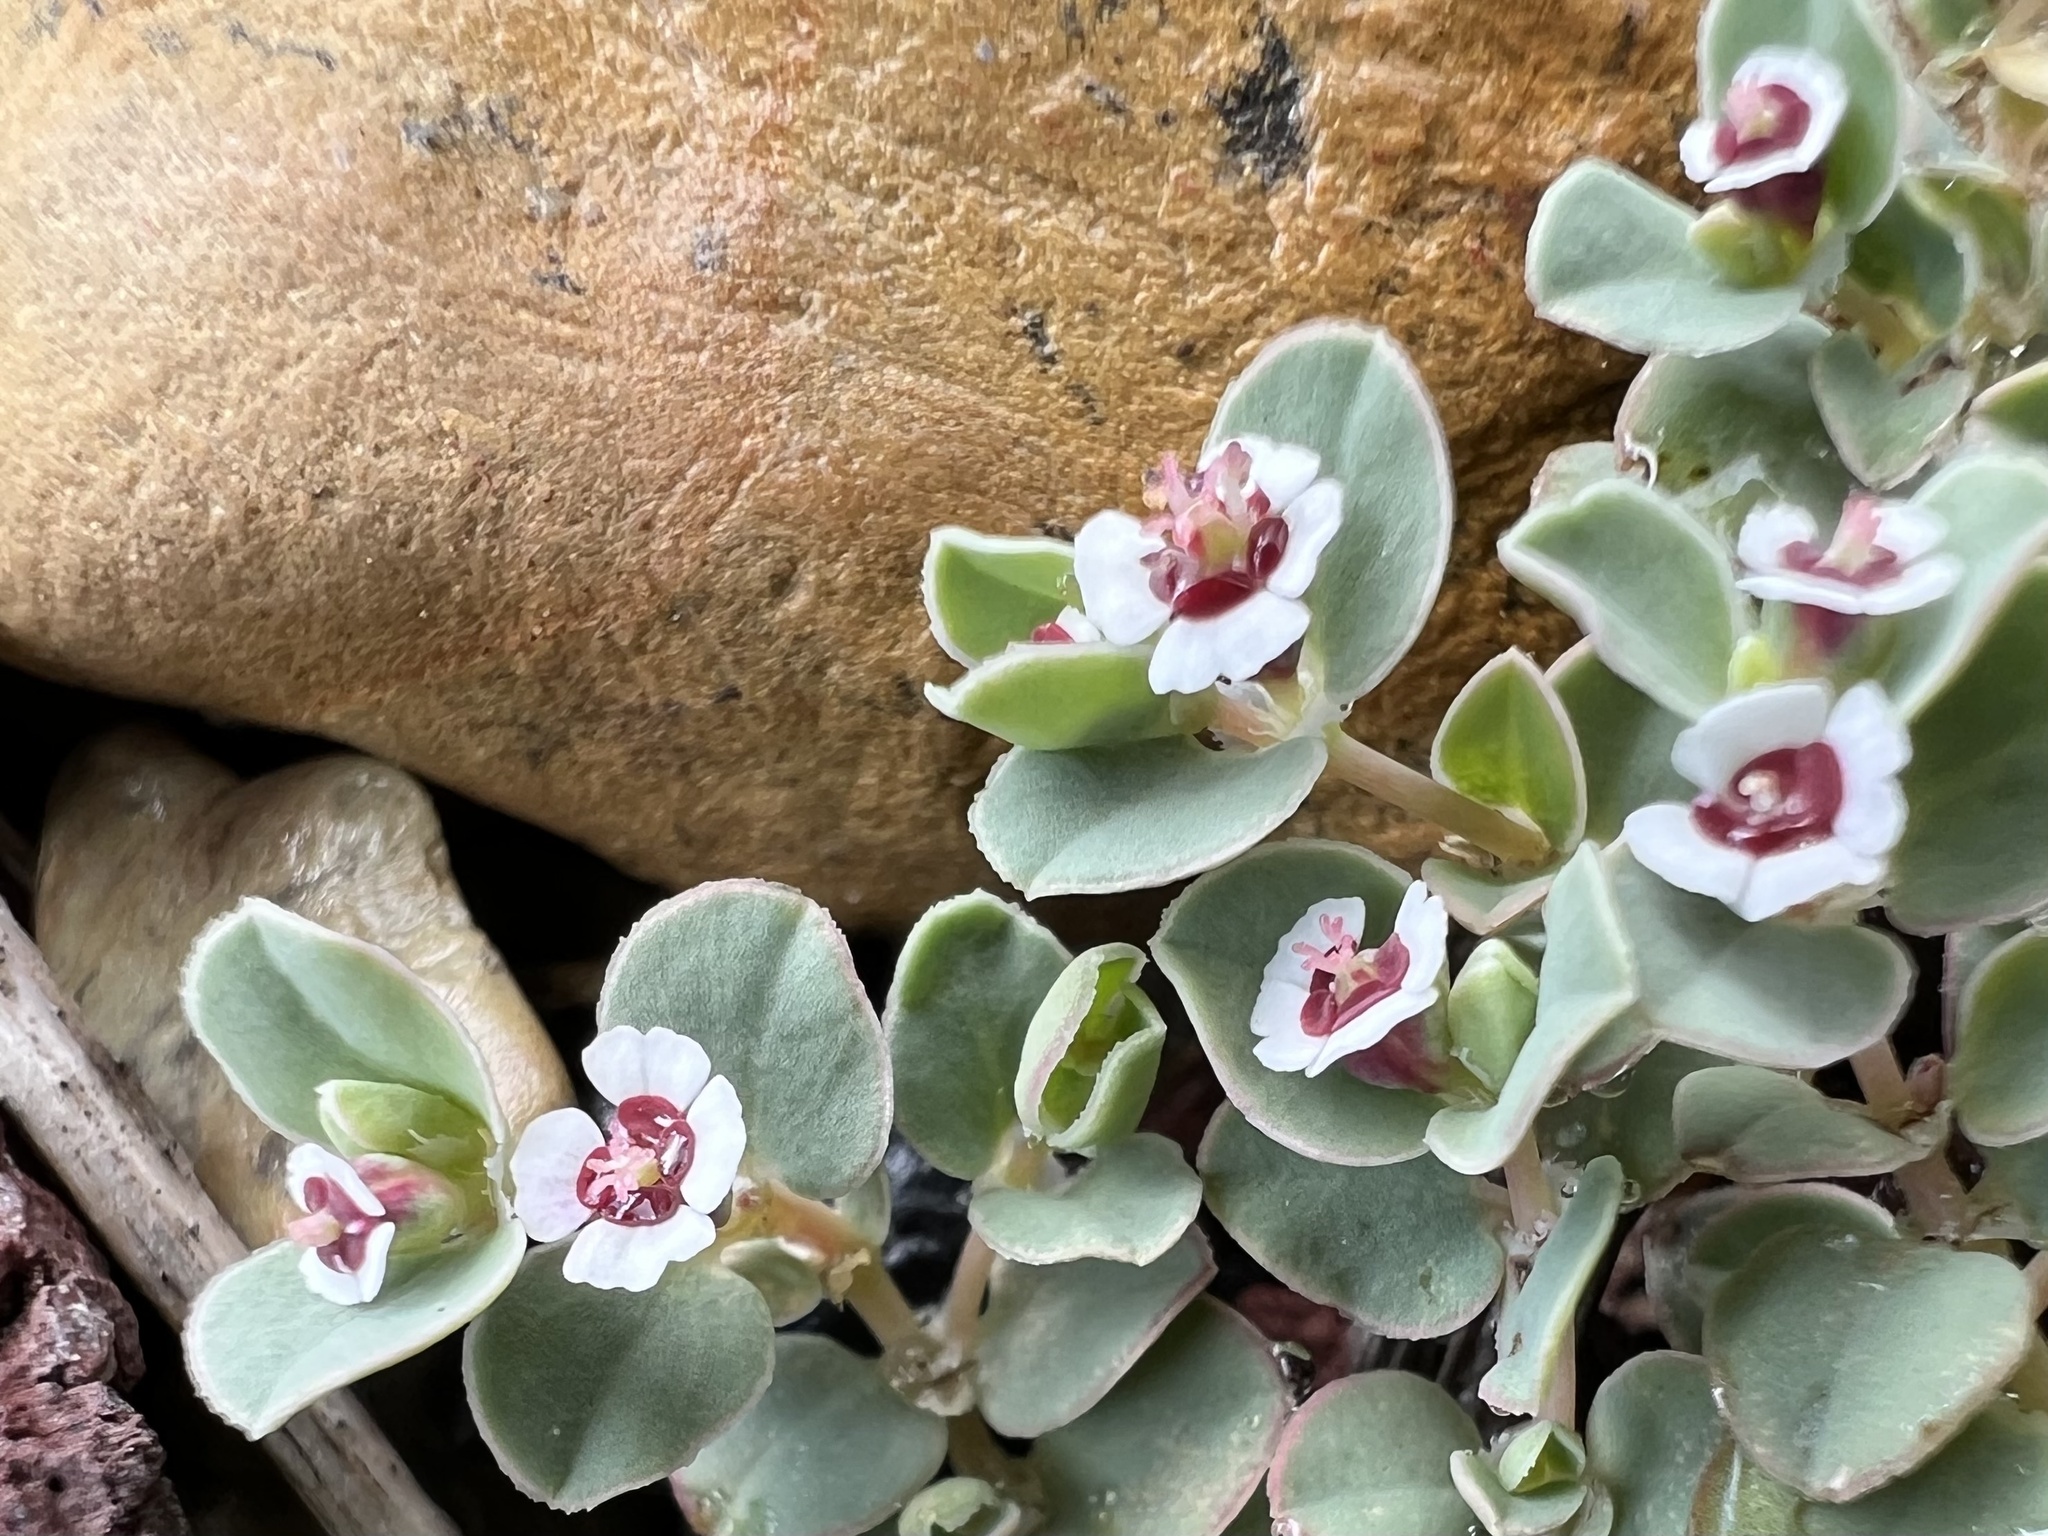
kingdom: Plantae
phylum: Tracheophyta
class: Magnoliopsida
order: Malpighiales
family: Euphorbiaceae
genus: Euphorbia
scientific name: Euphorbia albomarginata
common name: Whitemargin sandmat
